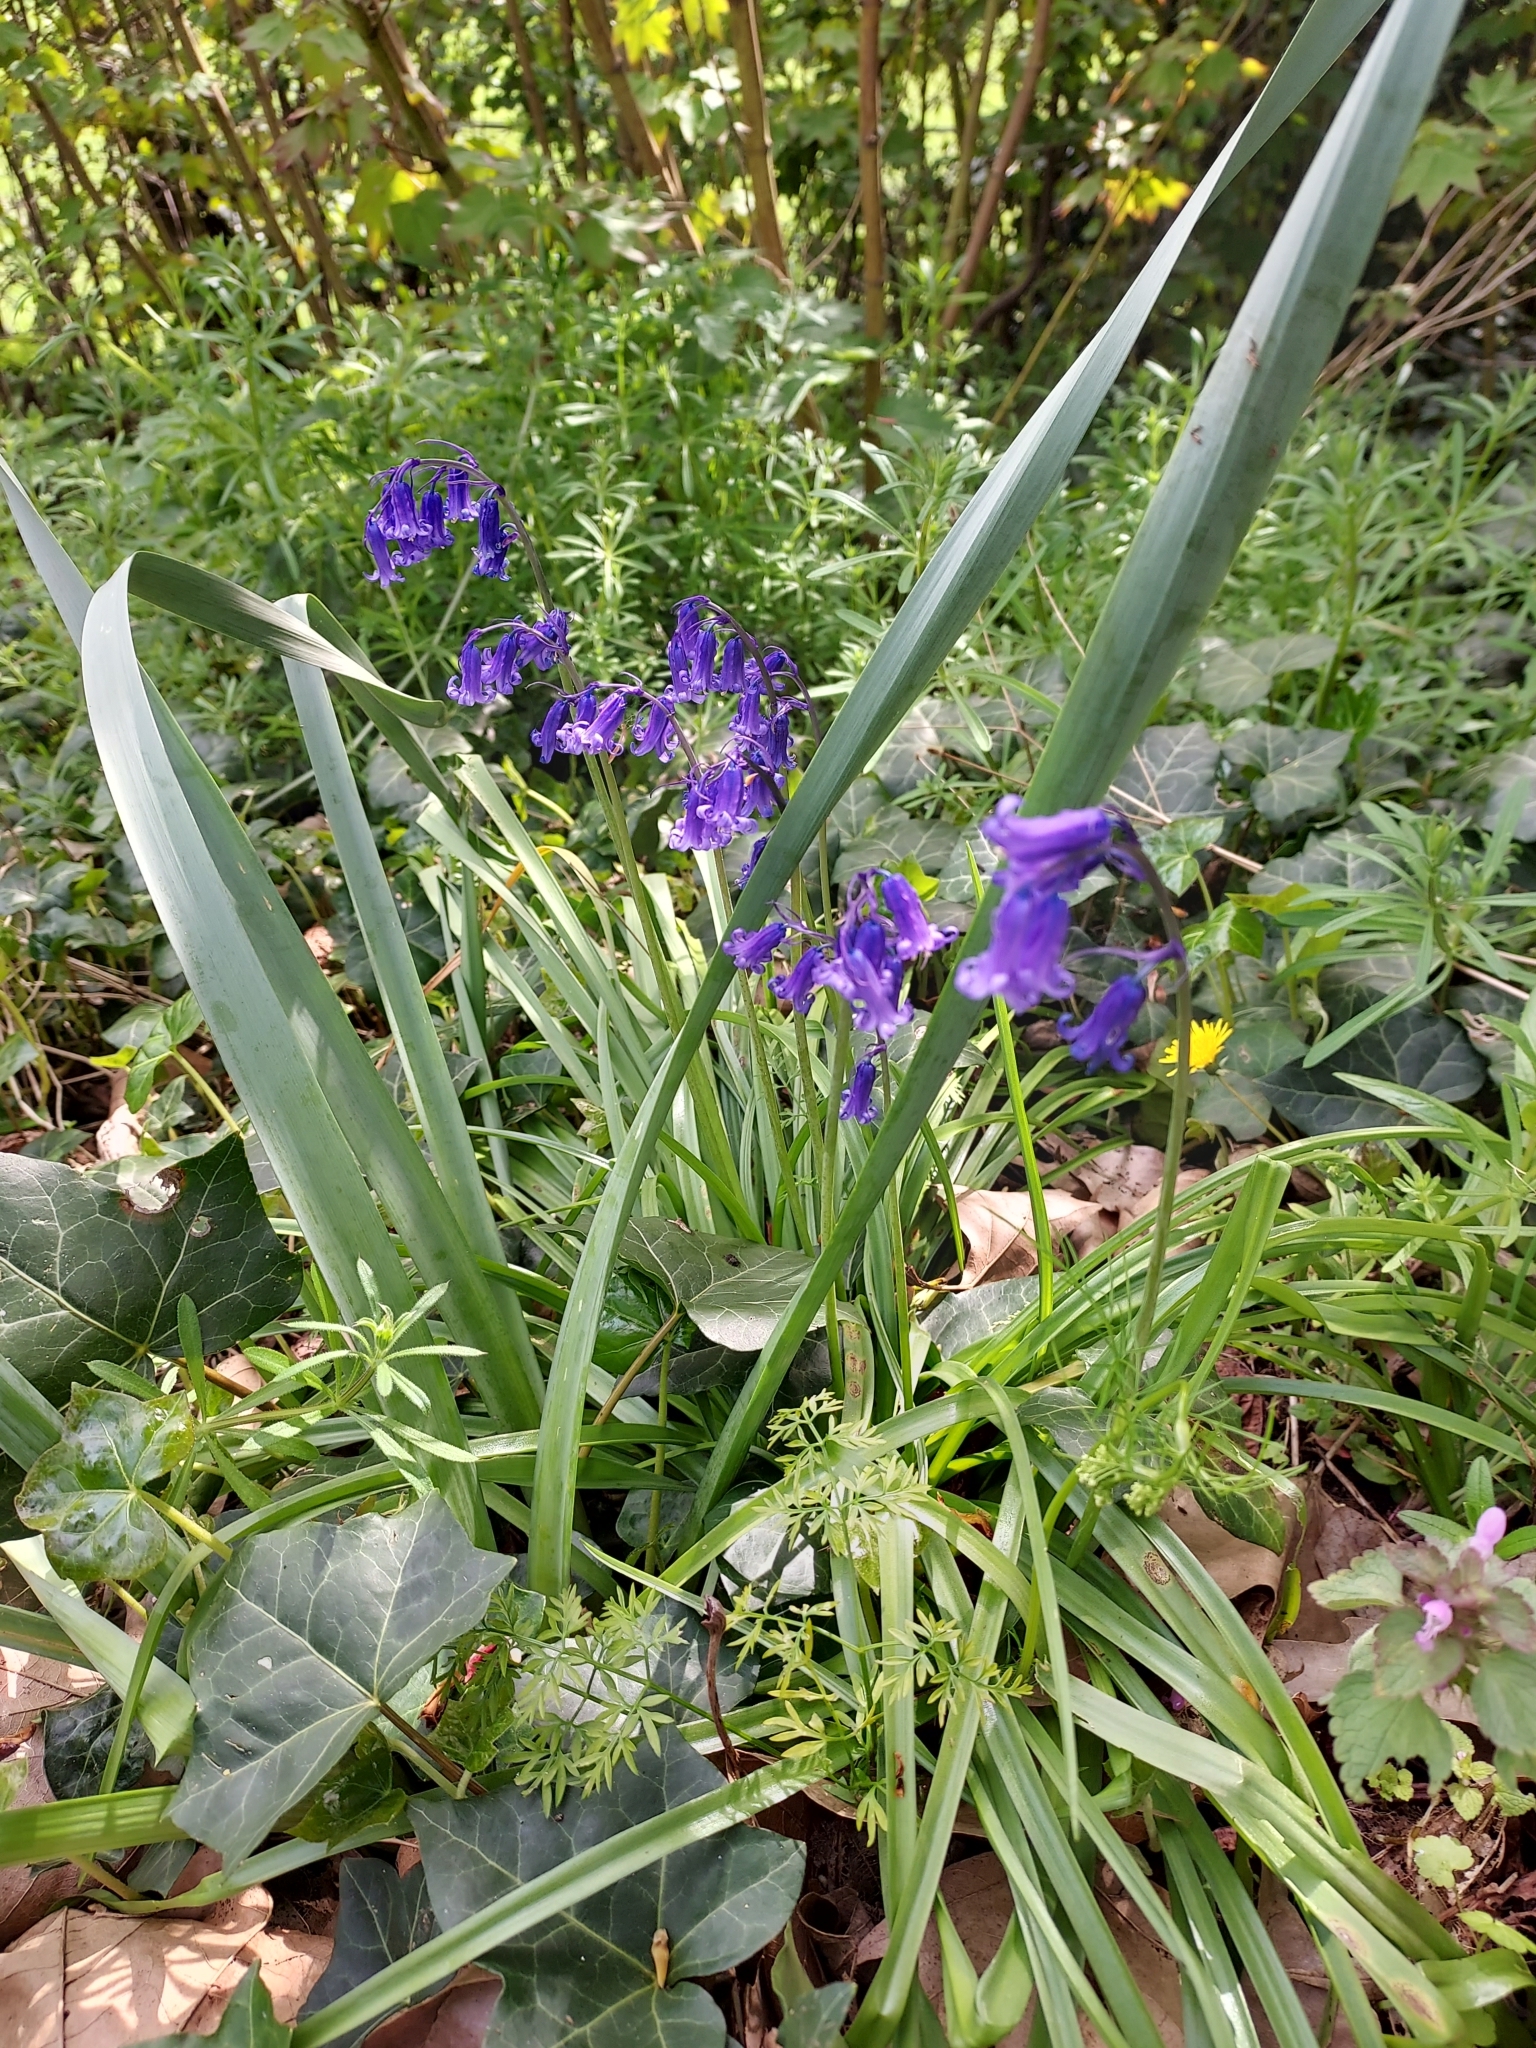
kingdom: Plantae
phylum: Tracheophyta
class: Liliopsida
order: Asparagales
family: Asparagaceae
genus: Hyacinthoides
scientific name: Hyacinthoides non-scripta
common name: Bluebell
